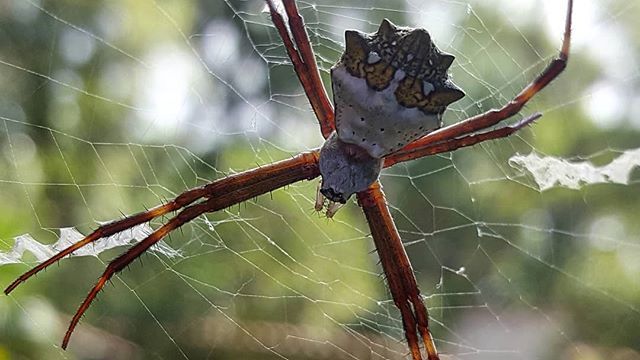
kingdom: Animalia
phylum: Arthropoda
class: Arachnida
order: Araneae
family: Araneidae
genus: Argiope
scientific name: Argiope argentata
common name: Orb weavers
